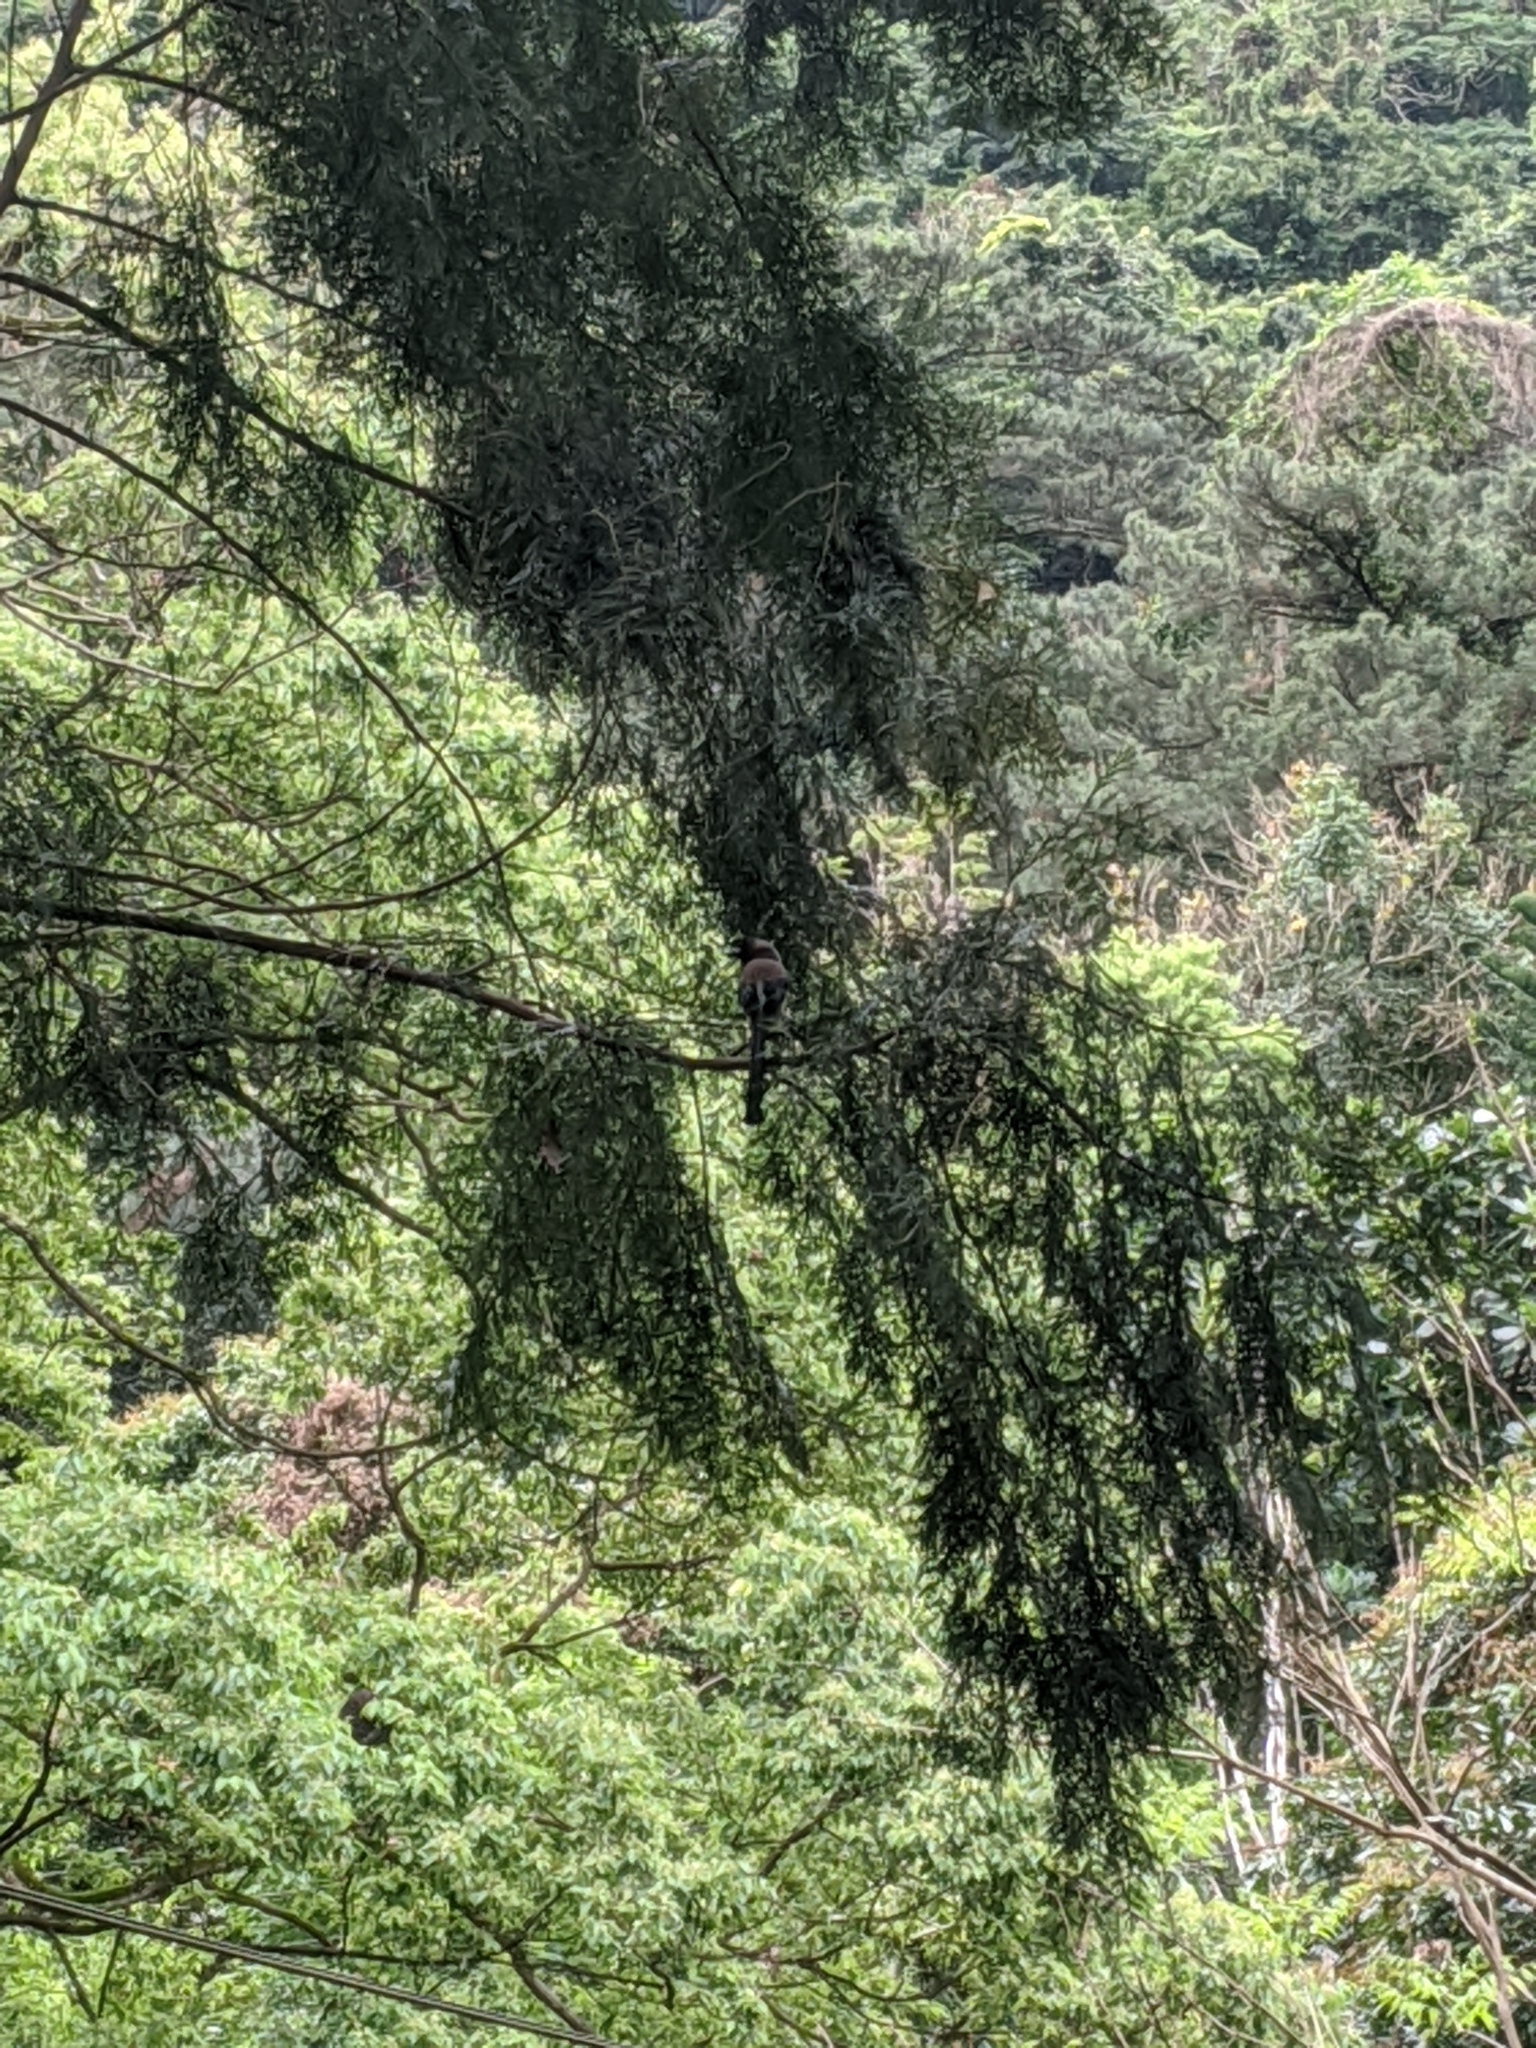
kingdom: Animalia
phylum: Chordata
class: Aves
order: Passeriformes
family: Corvidae
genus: Dendrocitta
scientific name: Dendrocitta formosae
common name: Grey treepie
